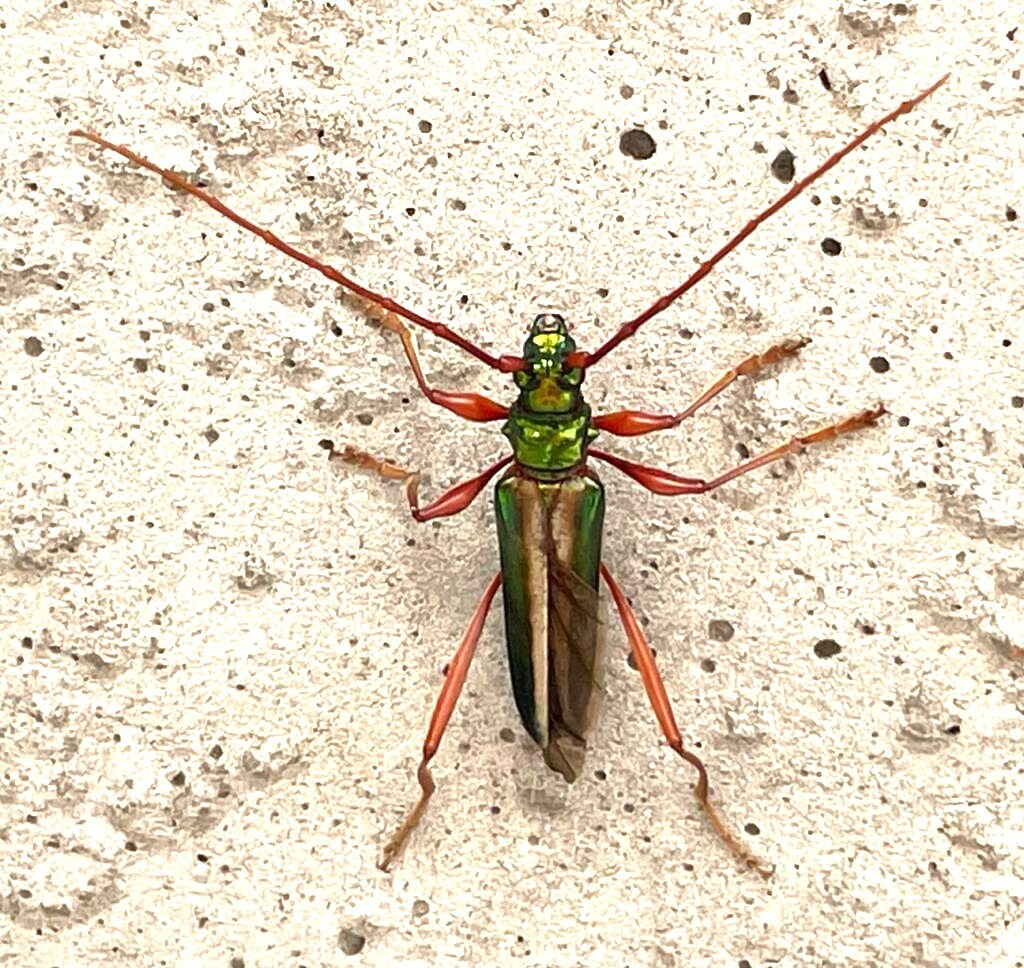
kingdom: Animalia
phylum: Arthropoda
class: Insecta
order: Coleoptera
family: Cerambycidae
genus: Chromalizus
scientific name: Chromalizus leucorhaphis
